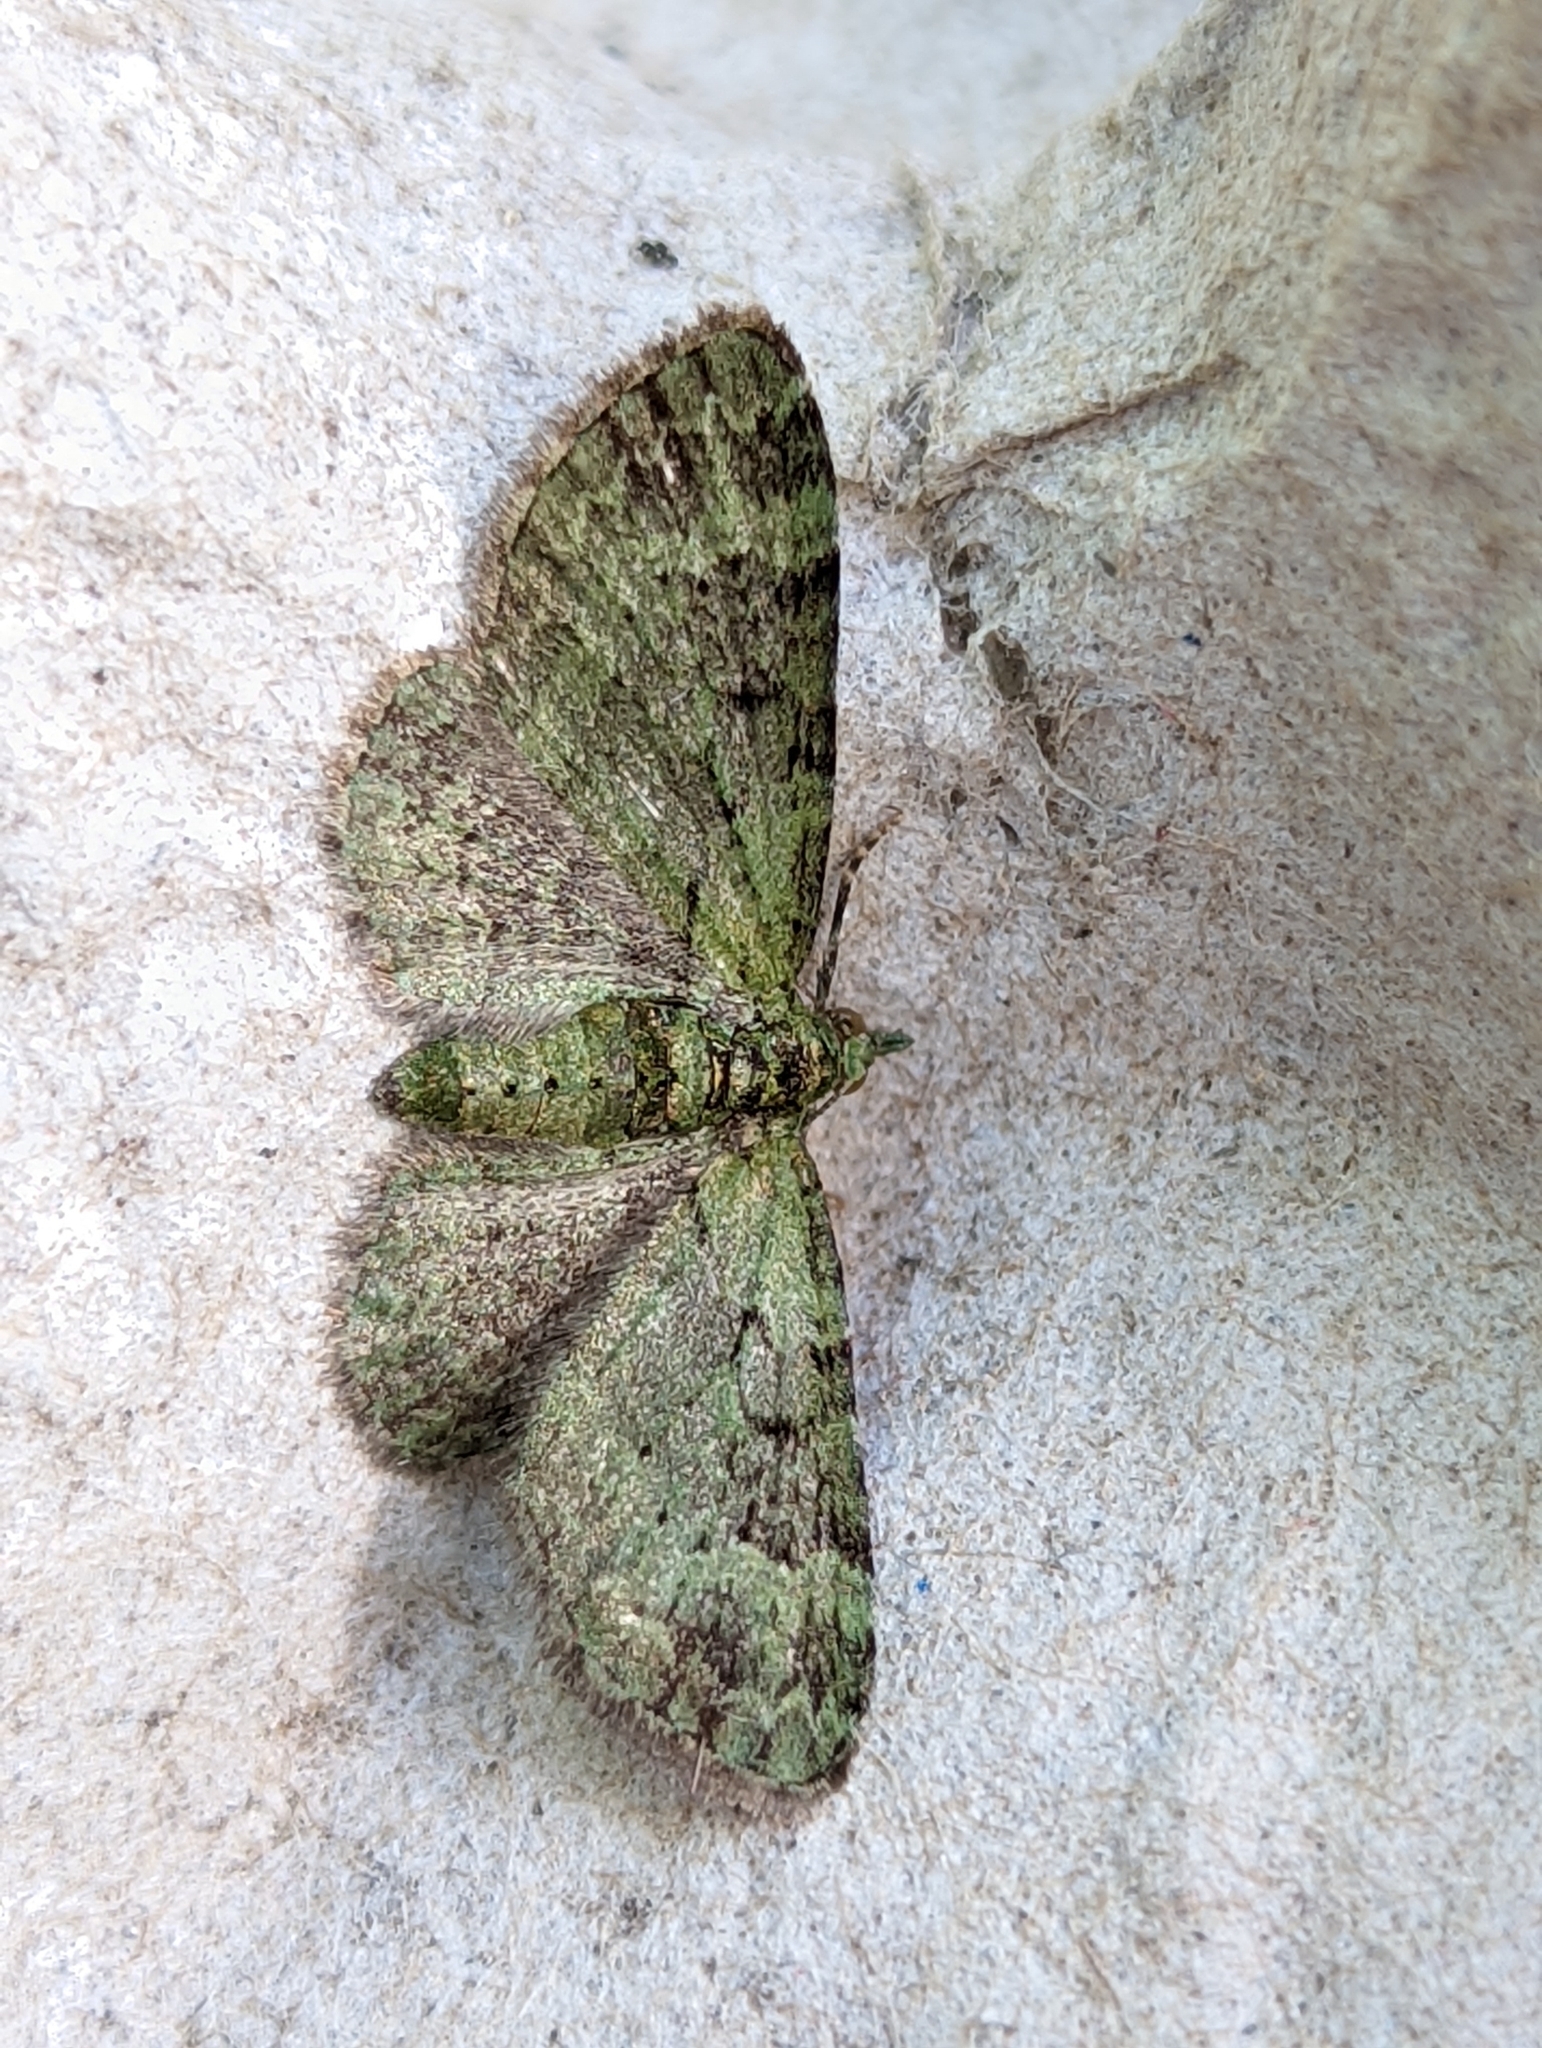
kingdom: Animalia
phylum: Arthropoda
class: Insecta
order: Lepidoptera
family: Geometridae
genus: Pasiphila
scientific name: Pasiphila rectangulata
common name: Green pug
